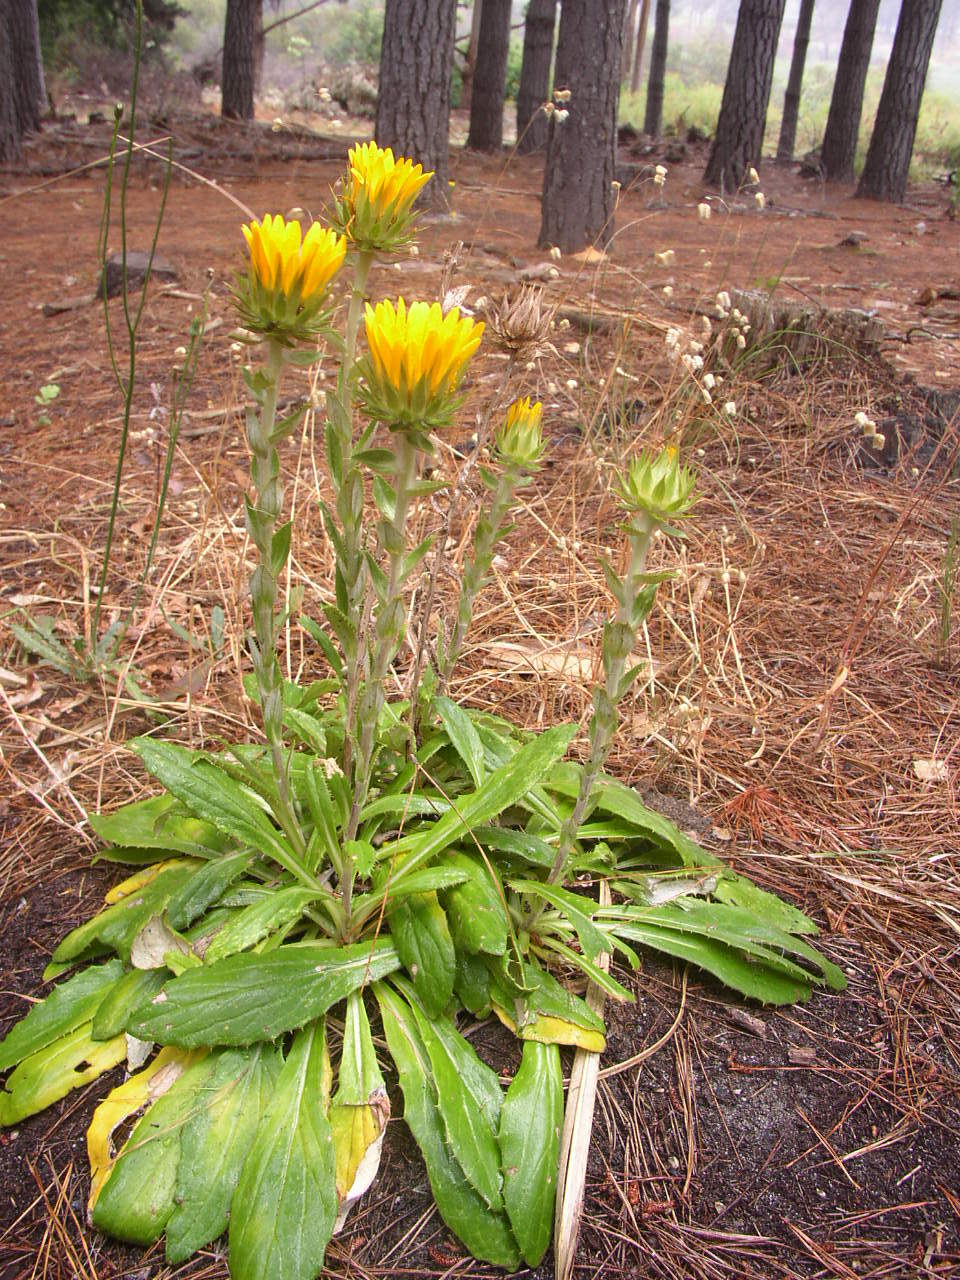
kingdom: Plantae
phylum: Tracheophyta
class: Magnoliopsida
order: Asterales
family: Asteraceae
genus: Berkheya
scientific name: Berkheya armata
